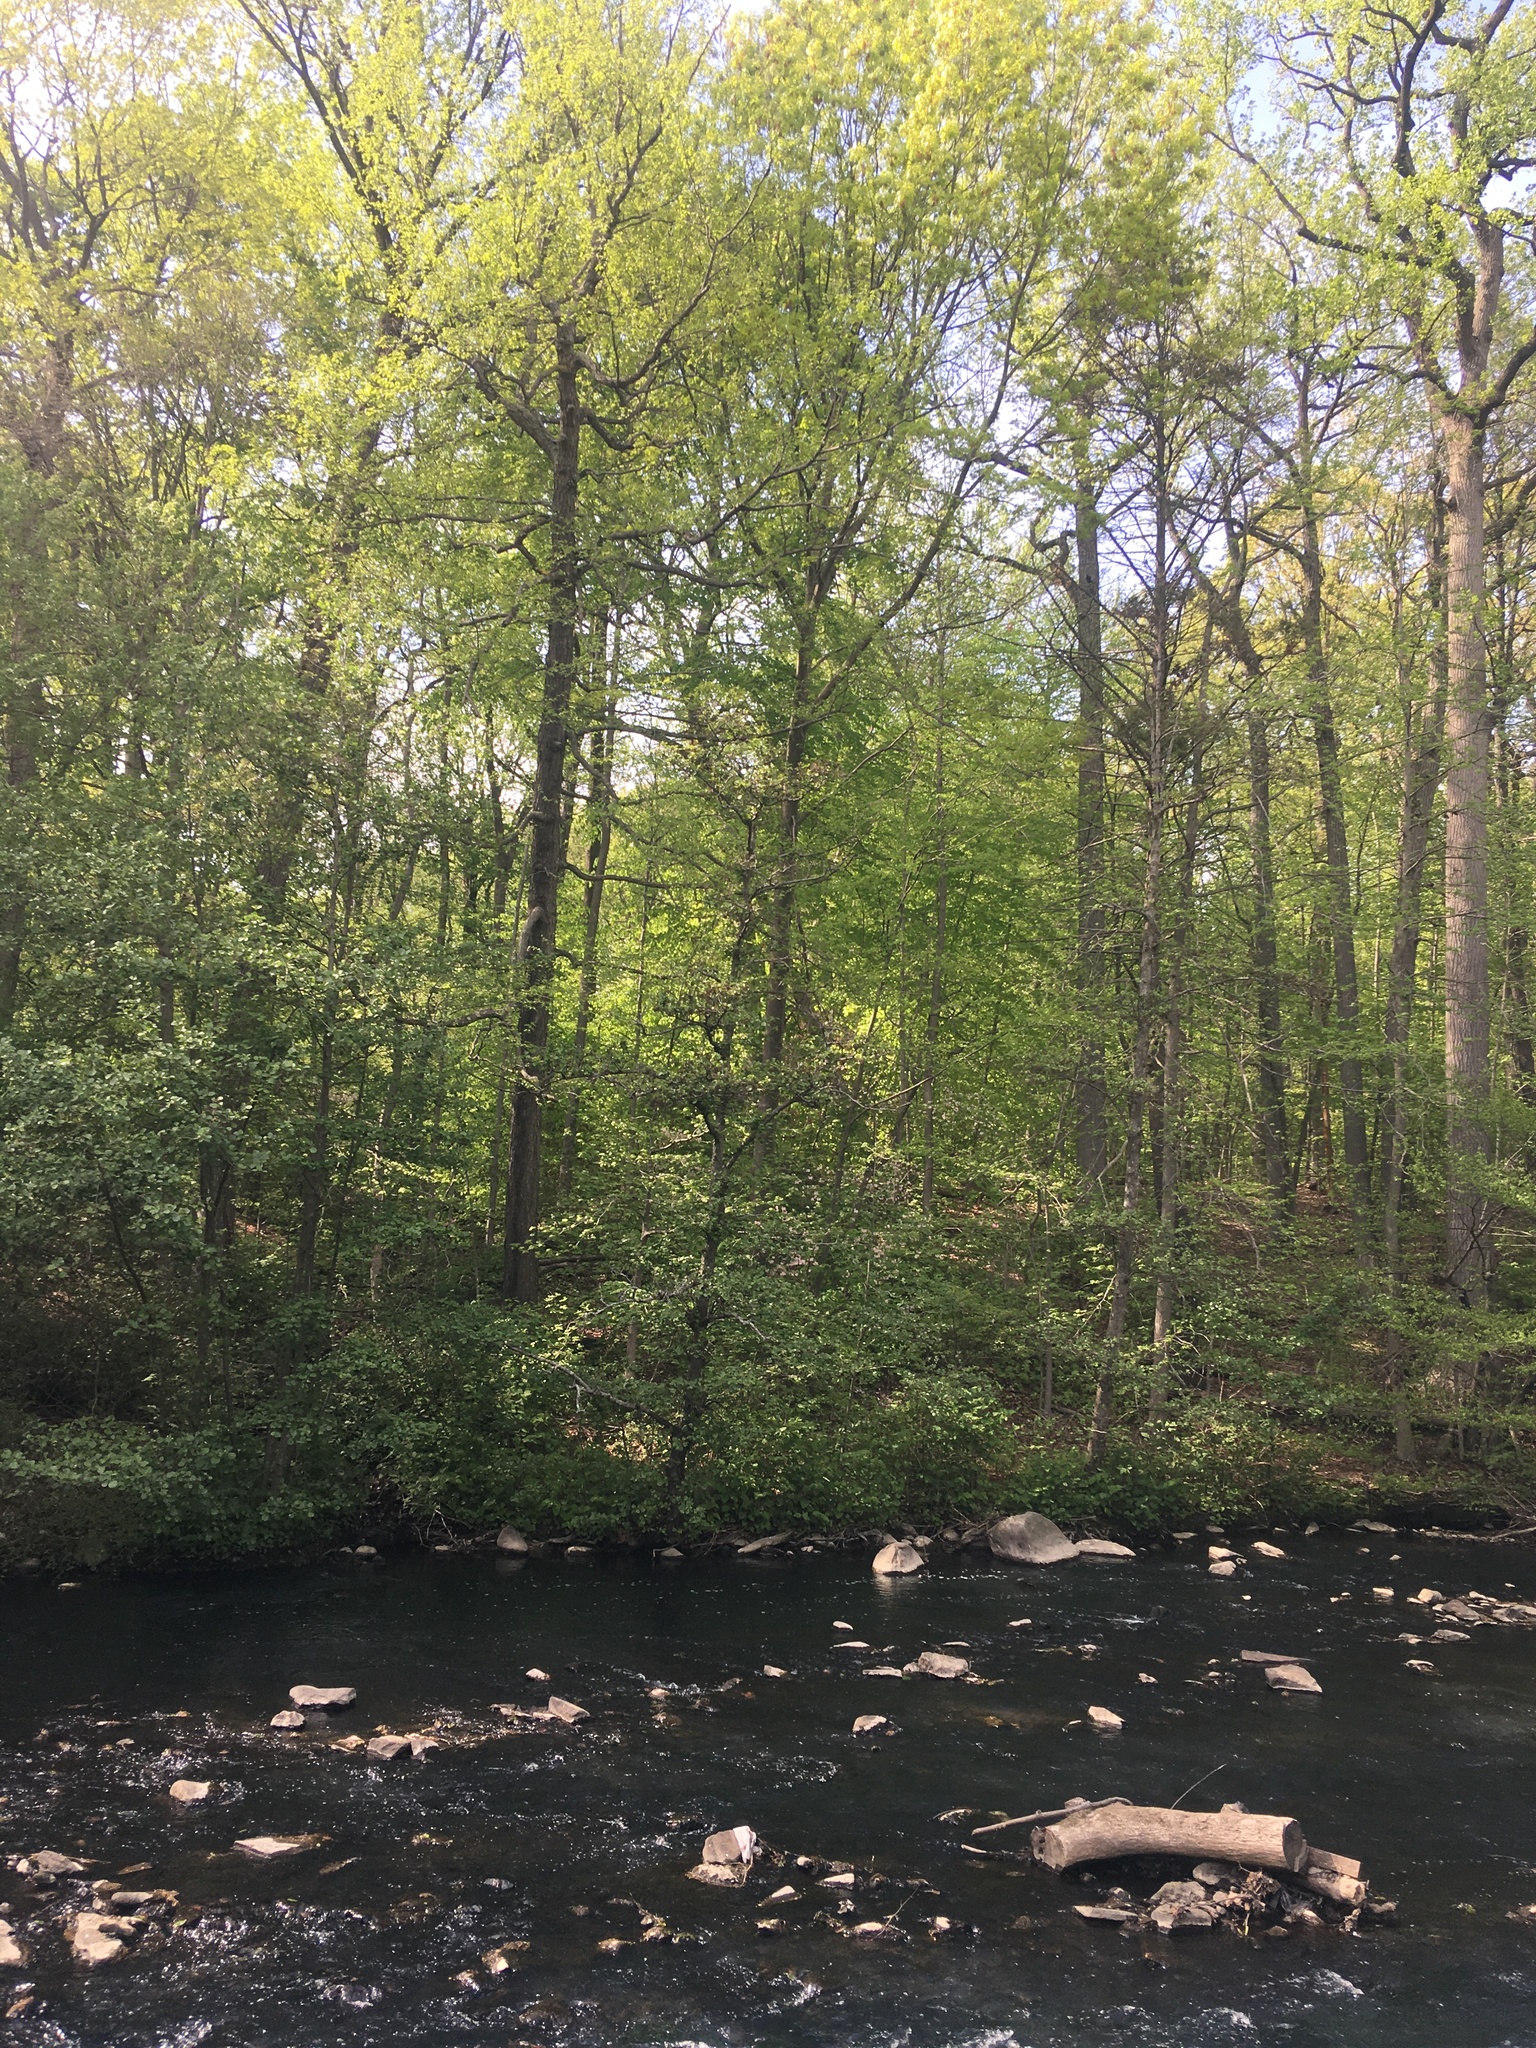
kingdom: Plantae
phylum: Tracheophyta
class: Magnoliopsida
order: Fagales
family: Betulaceae
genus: Alnus
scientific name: Alnus glutinosa
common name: Black alder
